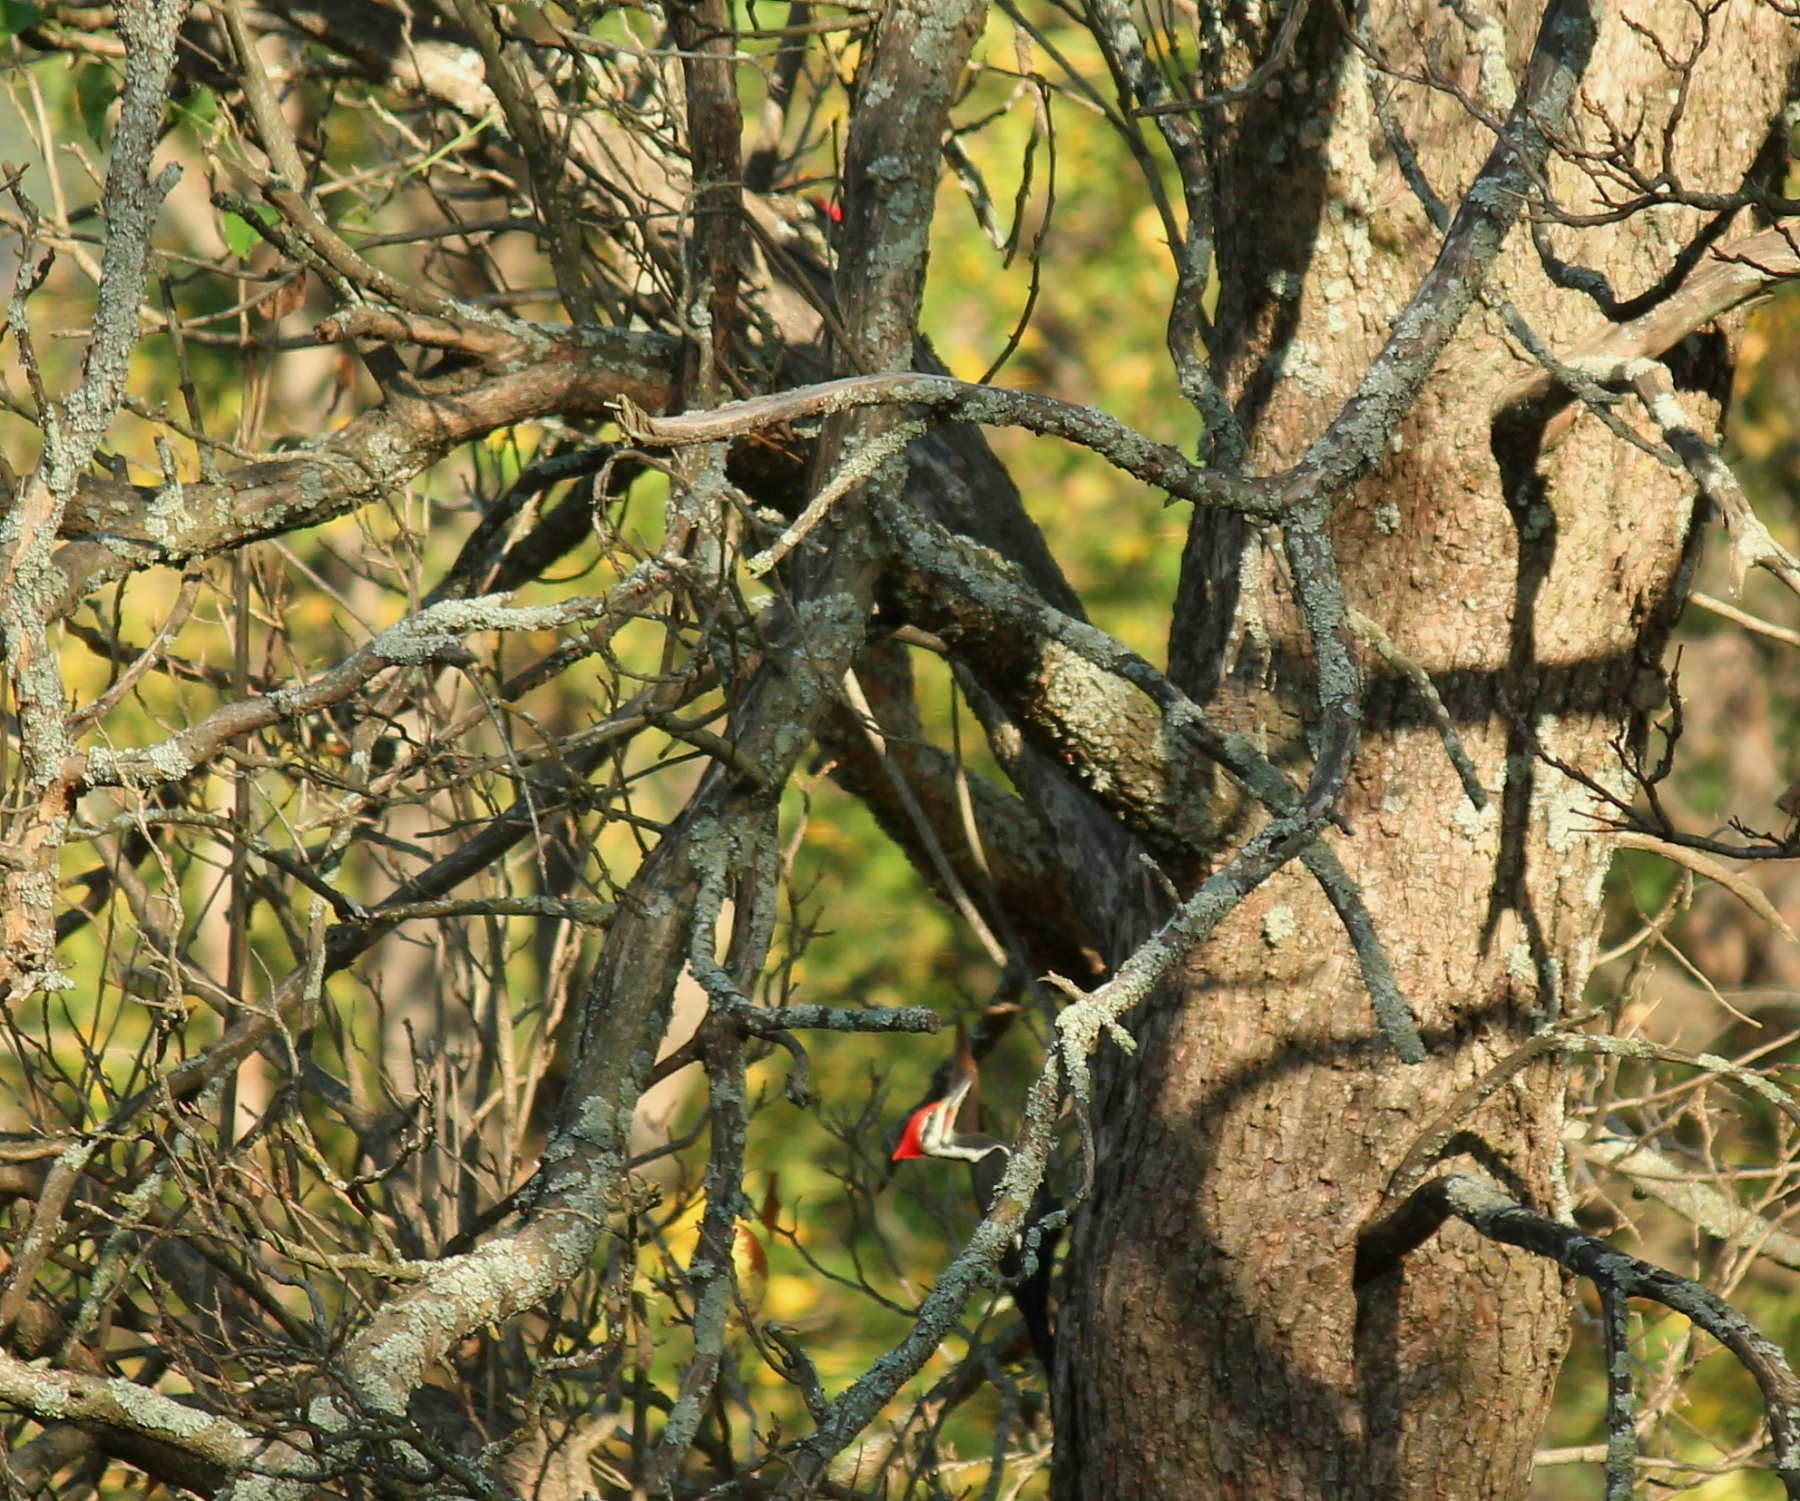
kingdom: Animalia
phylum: Chordata
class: Aves
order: Piciformes
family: Picidae
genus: Dryocopus
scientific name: Dryocopus pileatus
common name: Pileated woodpecker
